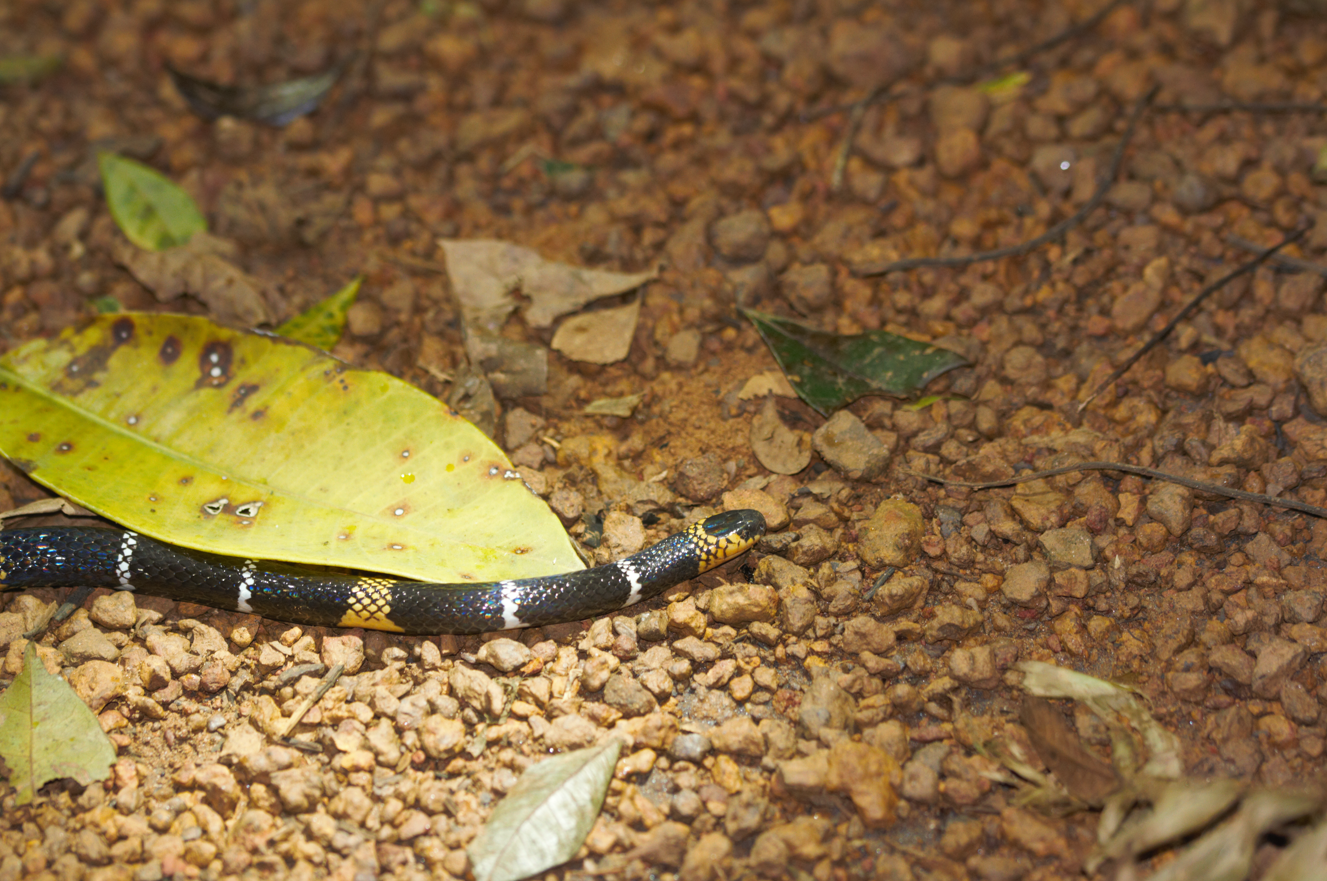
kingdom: Animalia
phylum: Chordata
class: Squamata
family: Elapidae
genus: Micrurus
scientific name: Micrurus hemprichii
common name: Hemprich's coral snake
